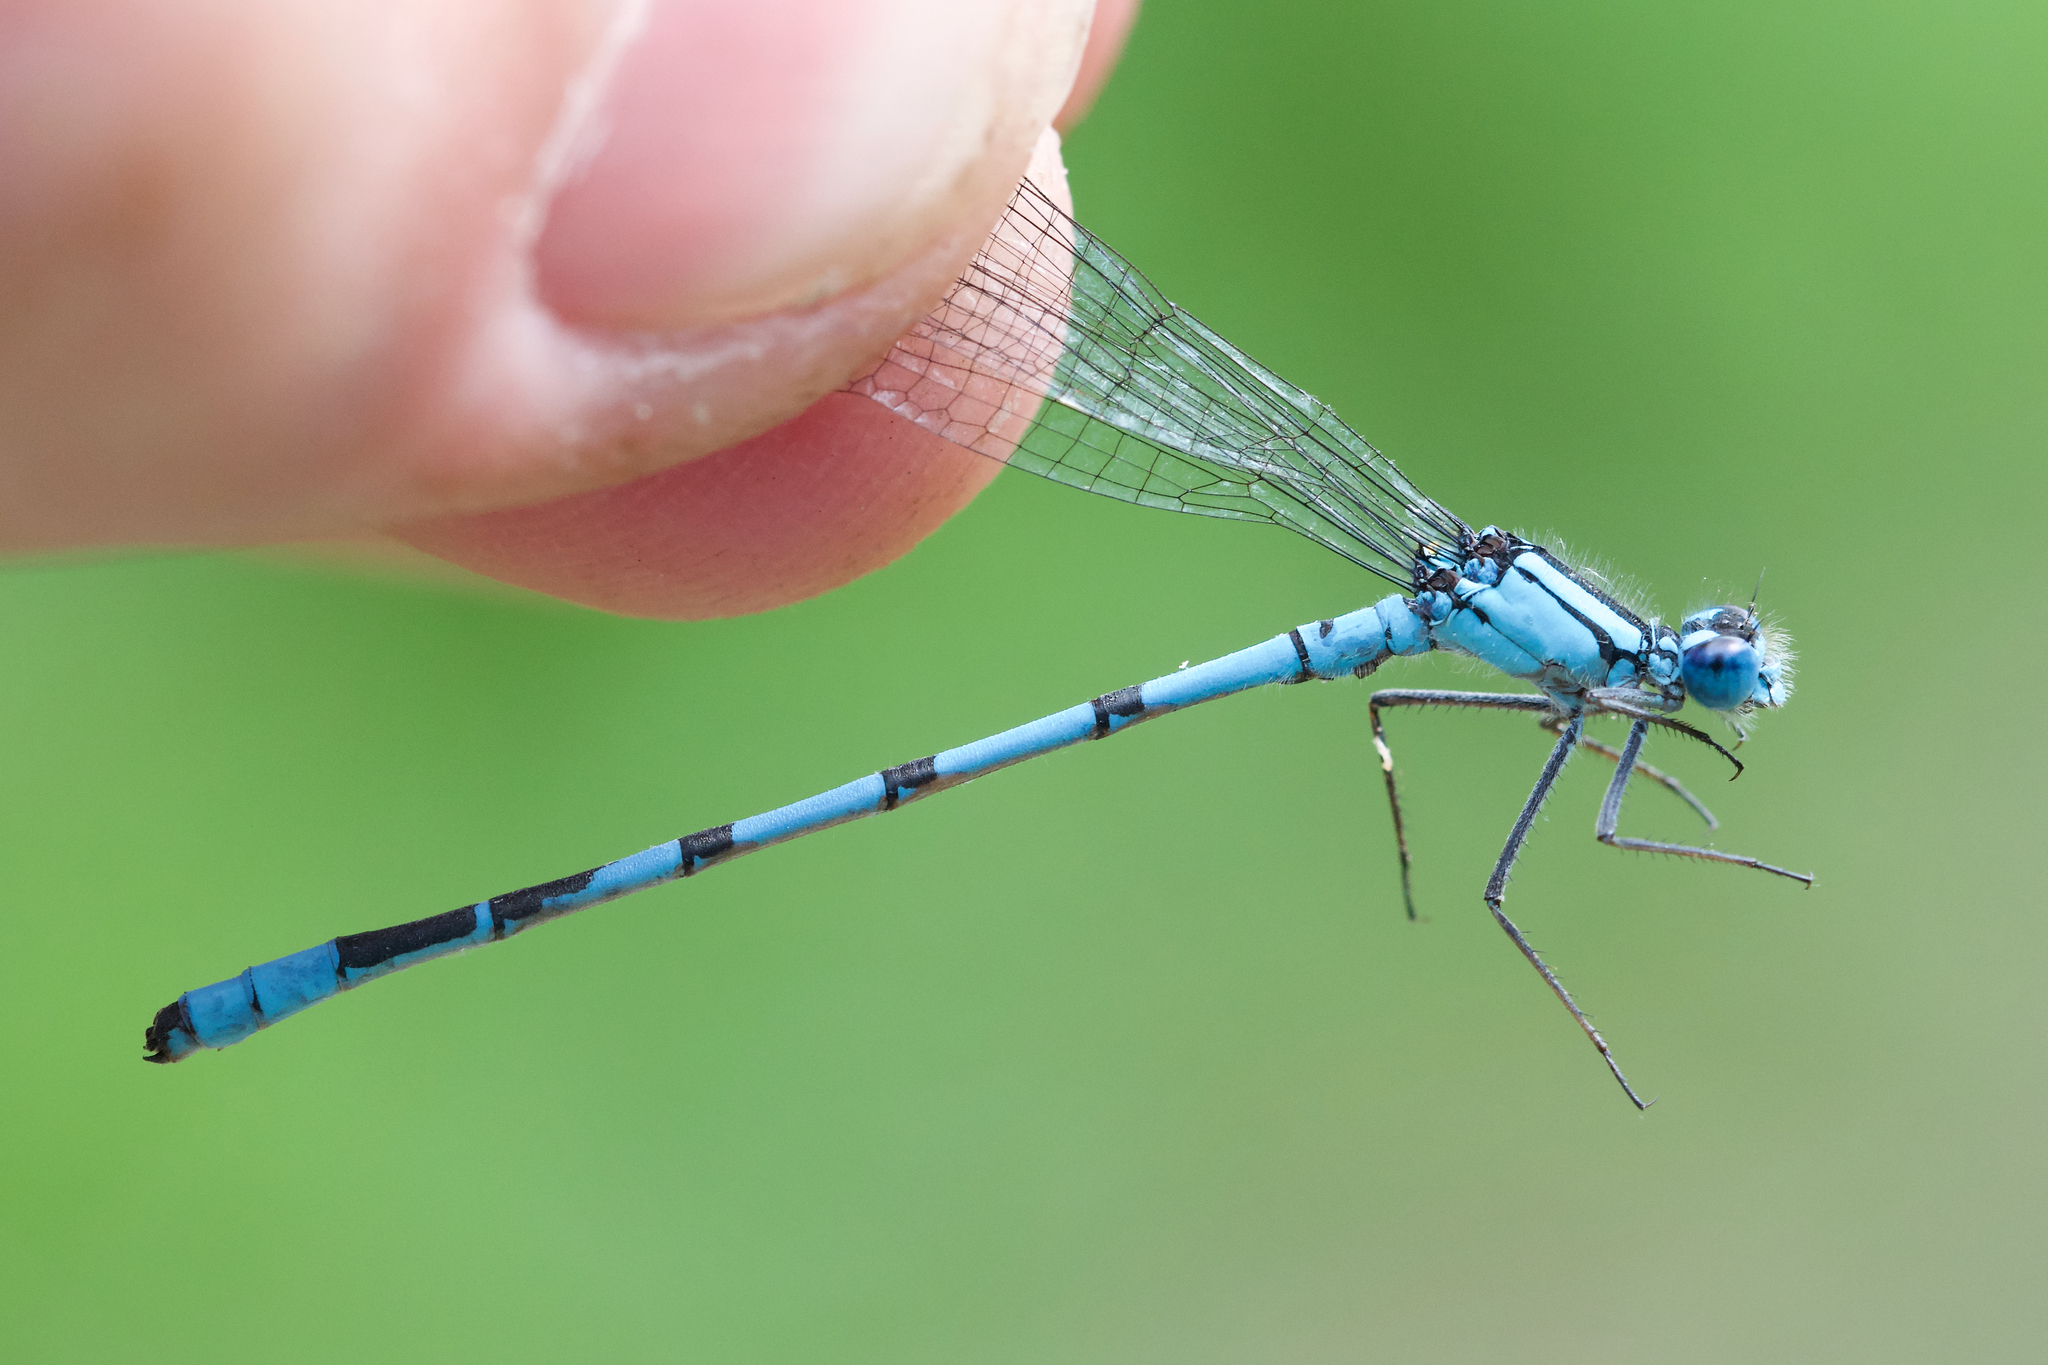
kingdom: Animalia
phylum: Arthropoda
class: Insecta
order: Odonata
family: Coenagrionidae
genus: Enallagma
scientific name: Enallagma boreale
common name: Boreal bluet
